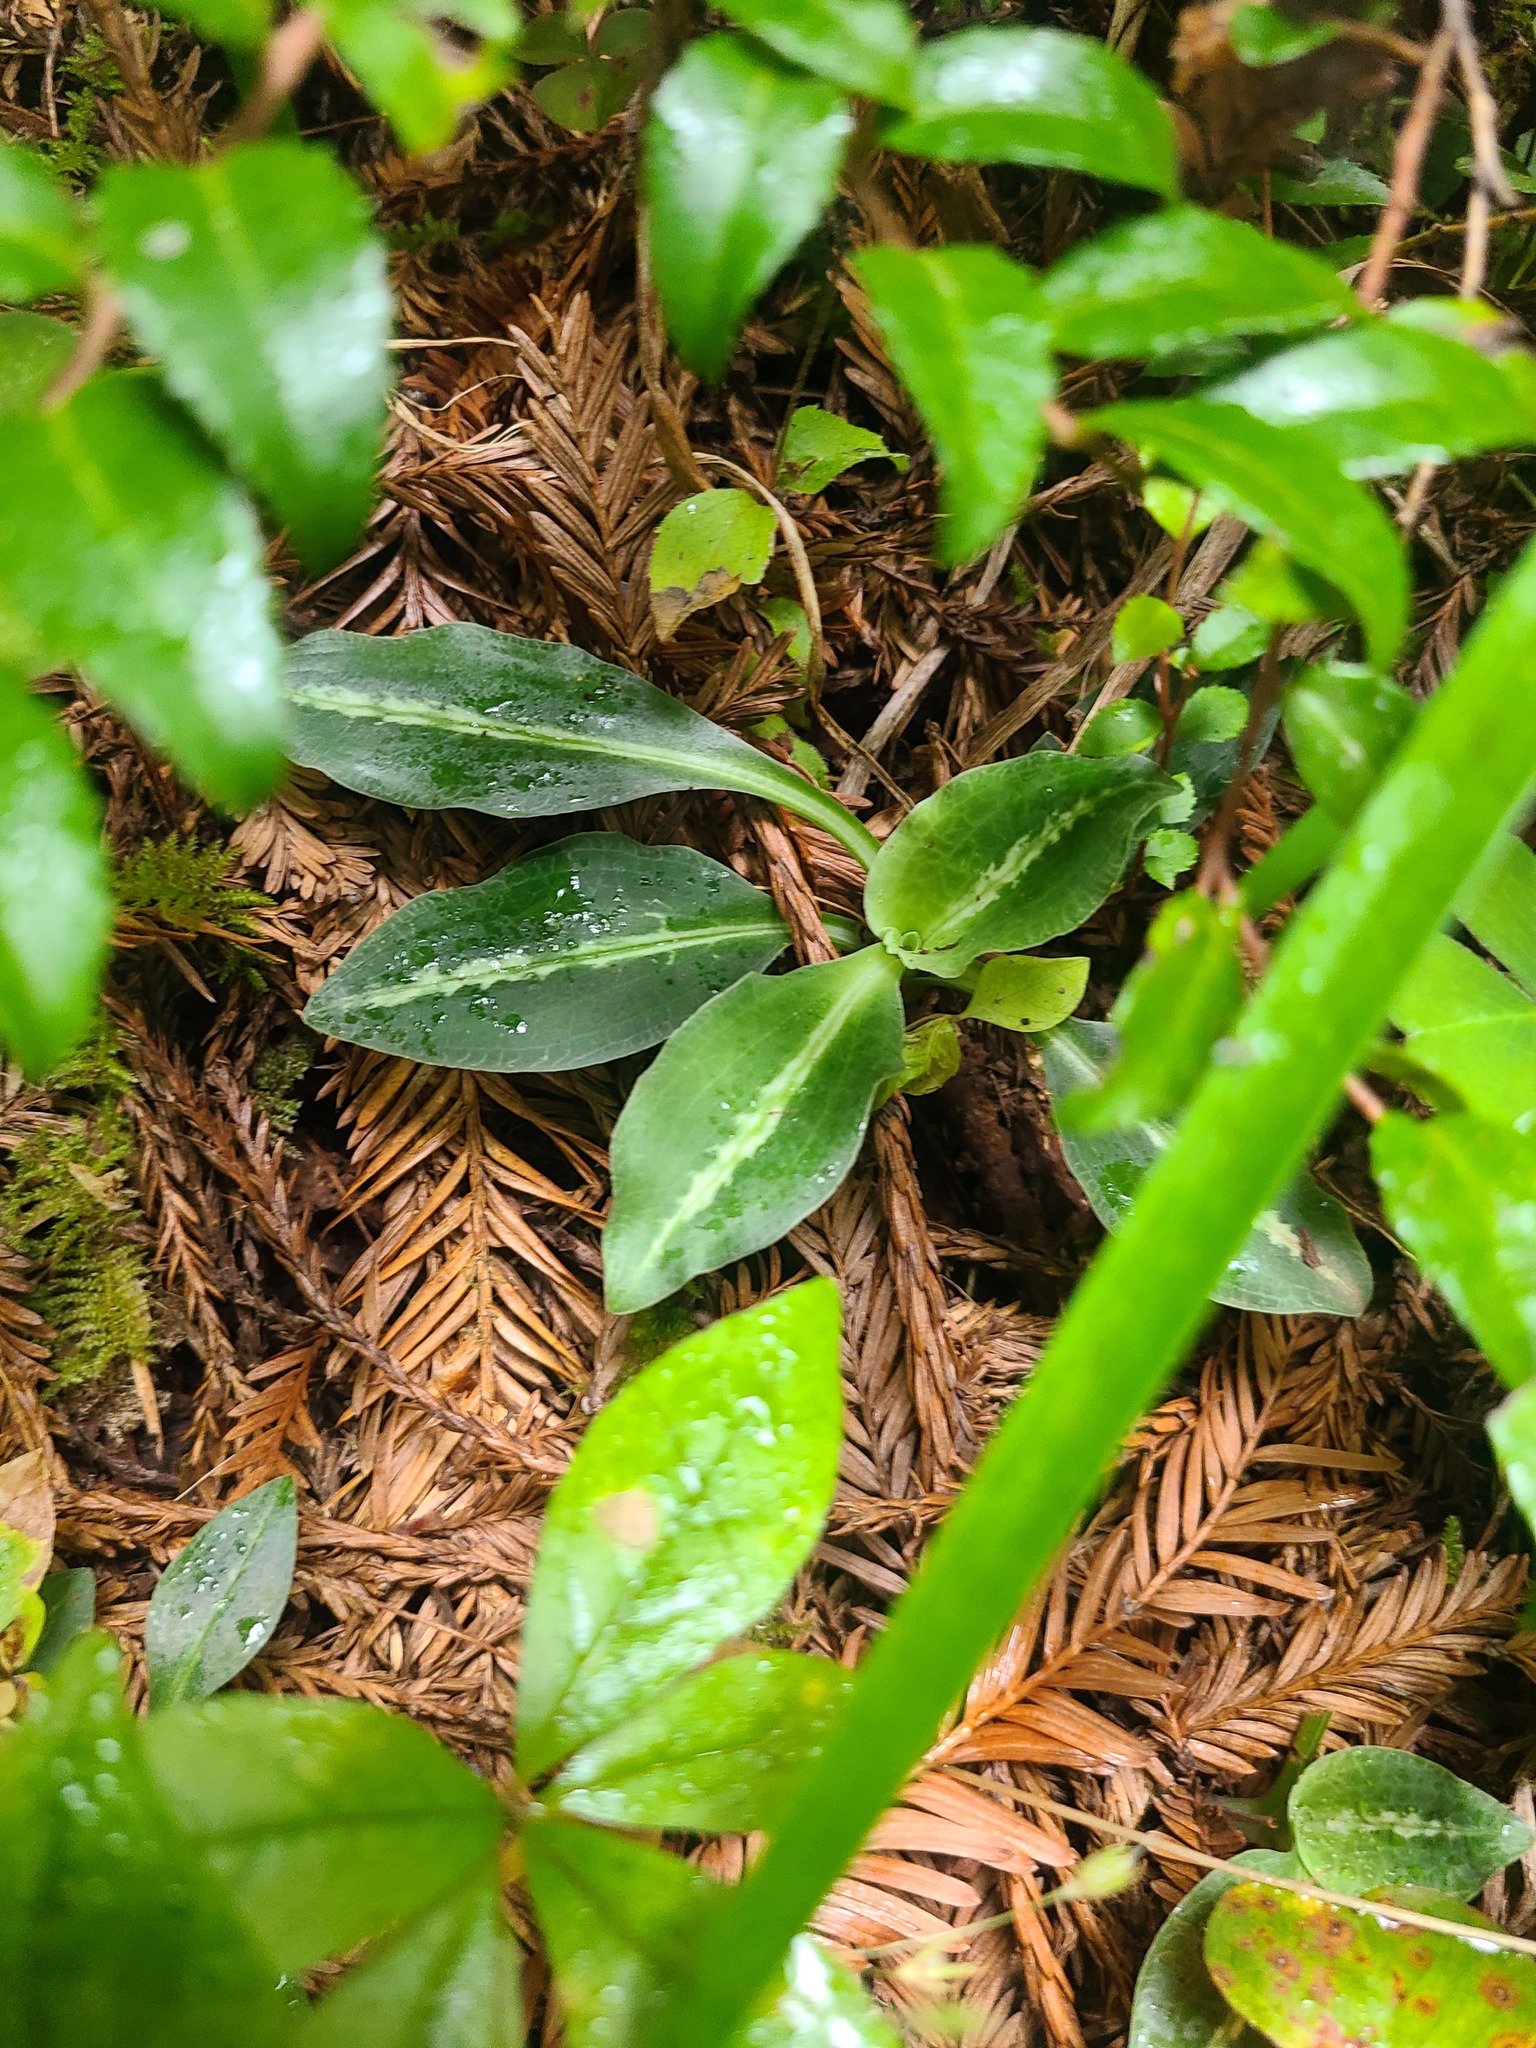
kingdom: Plantae
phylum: Tracheophyta
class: Liliopsida
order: Asparagales
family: Orchidaceae
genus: Goodyera
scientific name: Goodyera oblongifolia
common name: Giant rattlesnake-plantain
